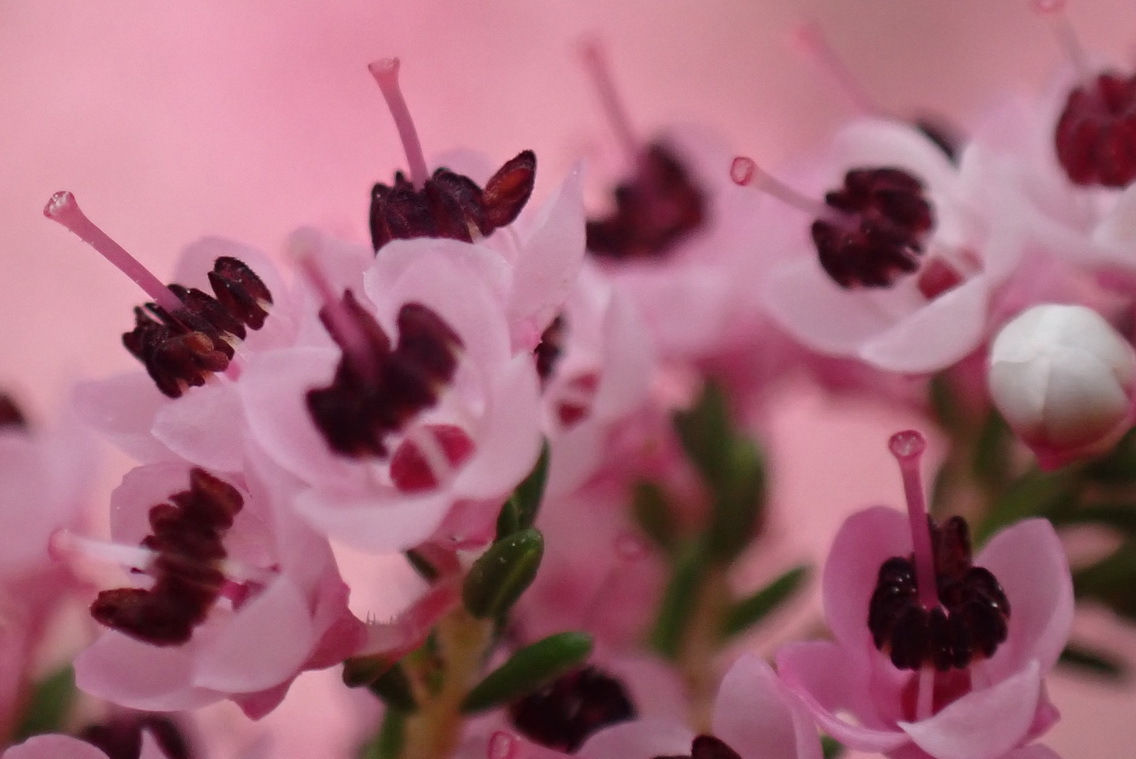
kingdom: Plantae
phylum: Tracheophyta
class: Magnoliopsida
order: Ericales
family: Ericaceae
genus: Erica
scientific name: Erica sparsa
